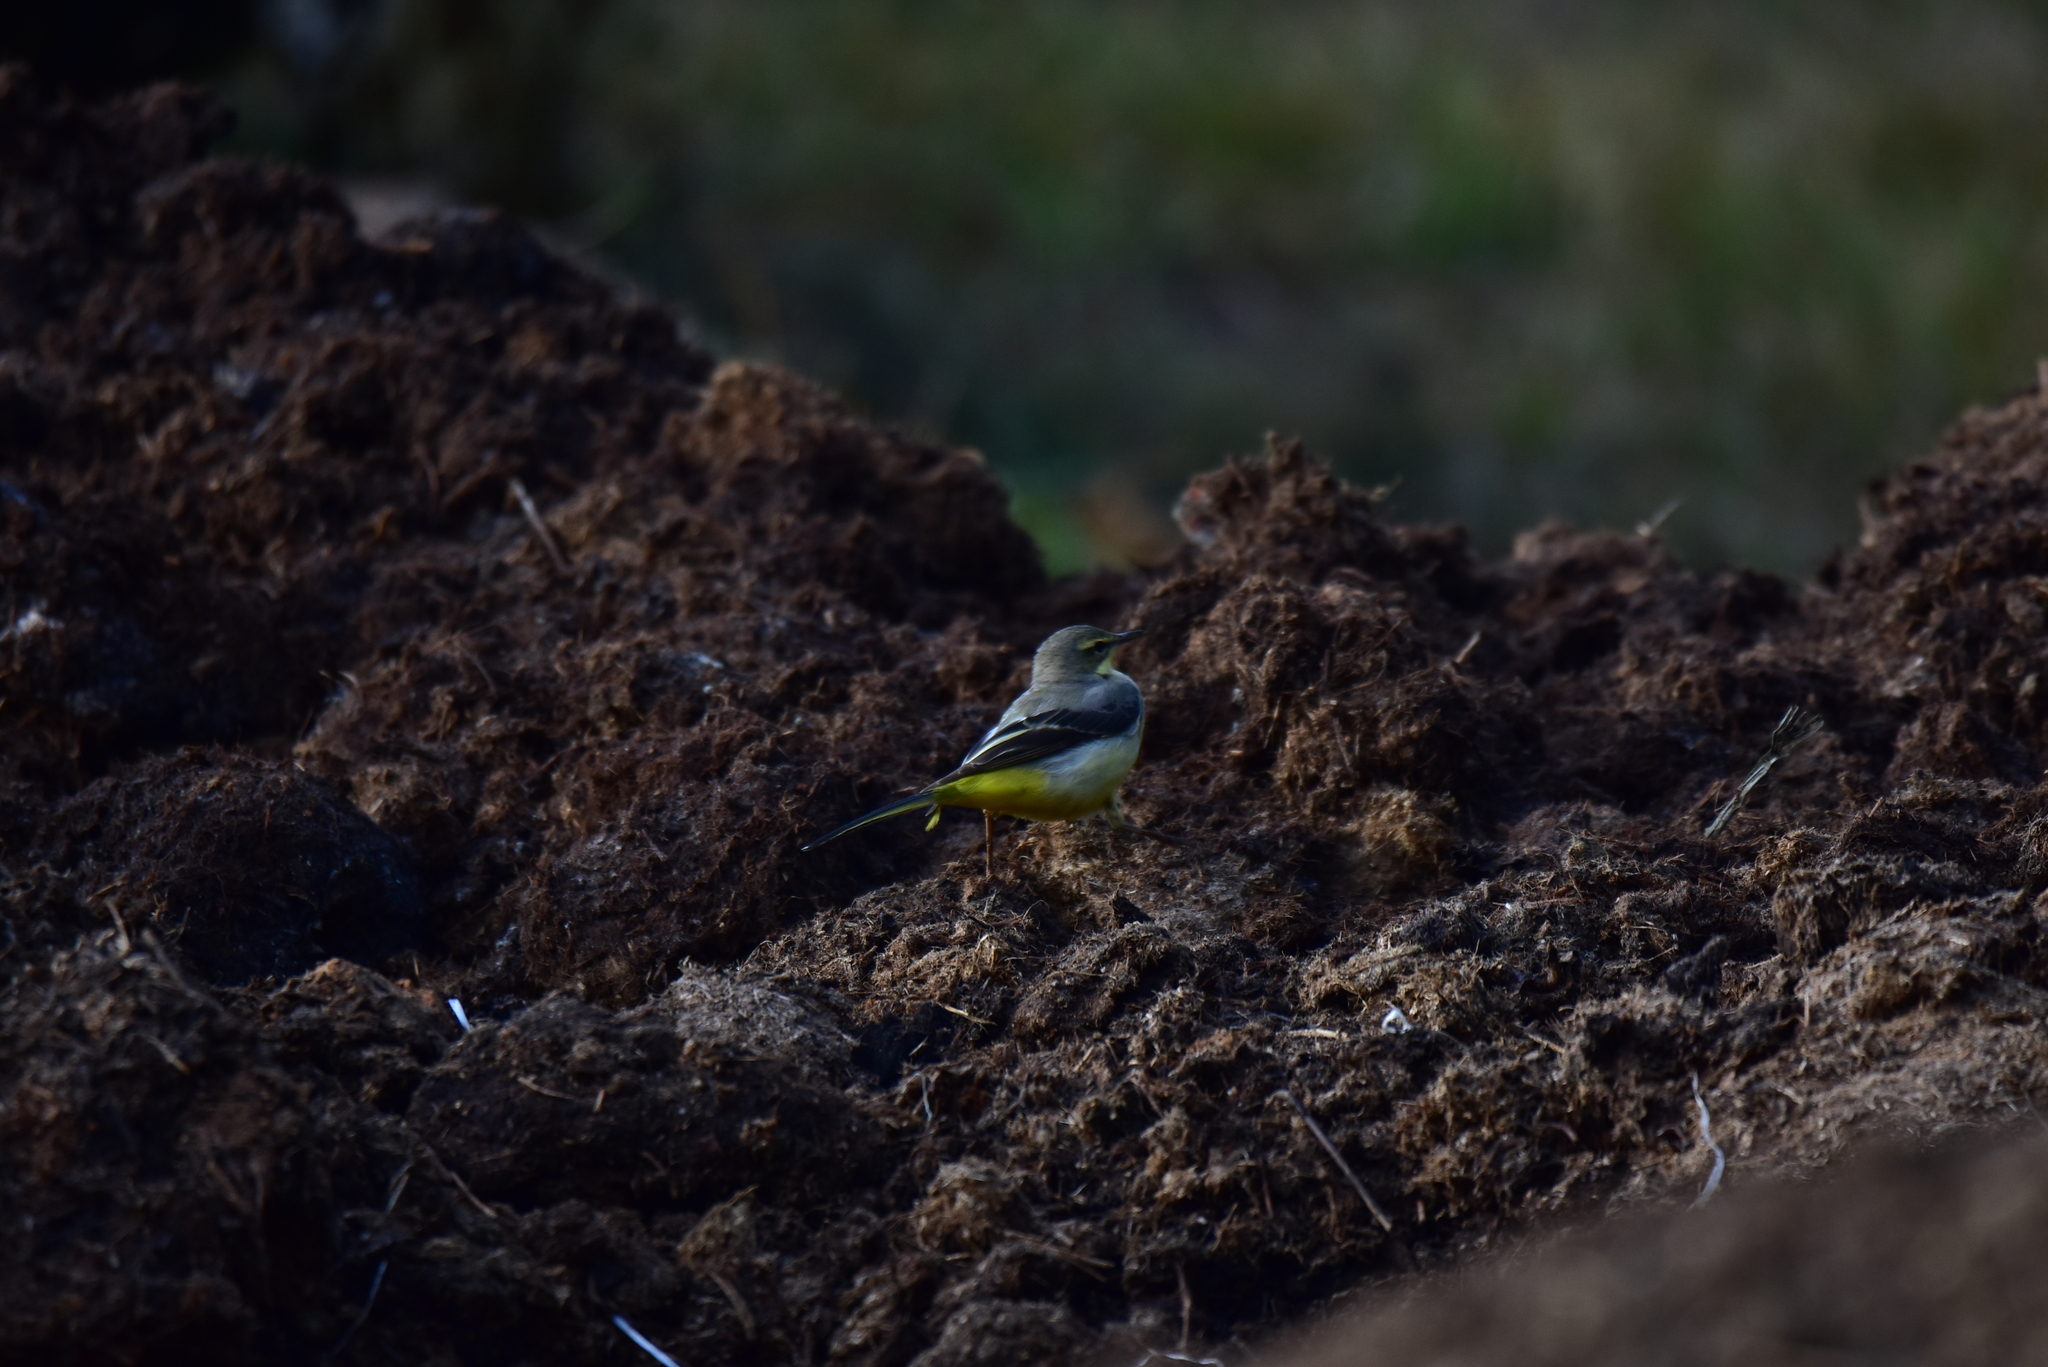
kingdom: Animalia
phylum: Chordata
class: Aves
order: Passeriformes
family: Motacillidae
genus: Motacilla
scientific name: Motacilla cinerea
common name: Grey wagtail
